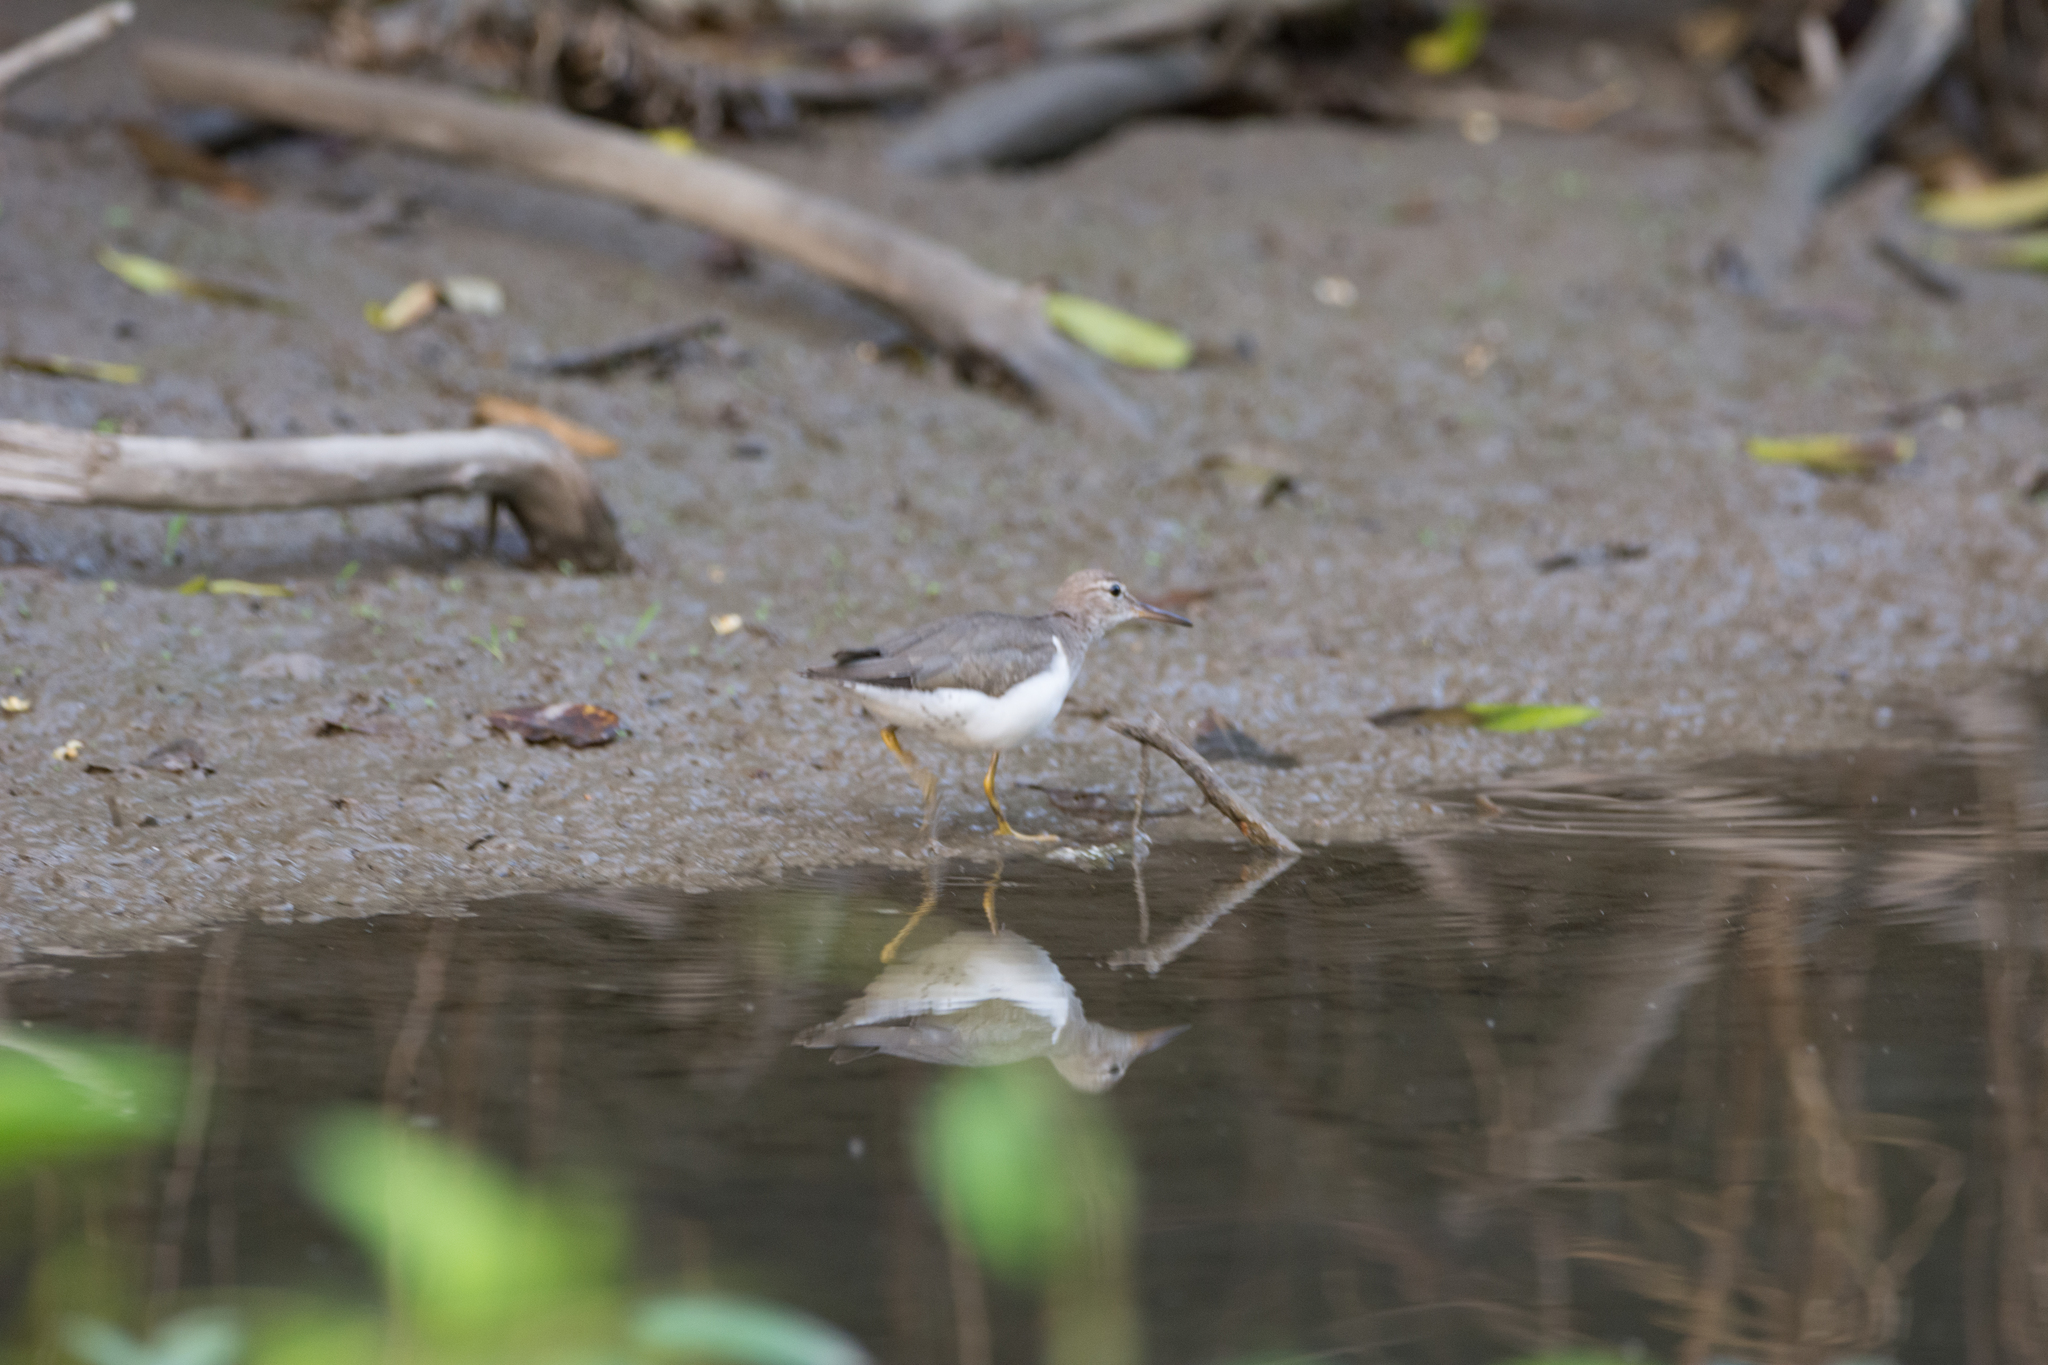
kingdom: Animalia
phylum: Chordata
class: Aves
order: Charadriiformes
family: Scolopacidae
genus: Actitis
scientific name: Actitis macularius
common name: Spotted sandpiper
